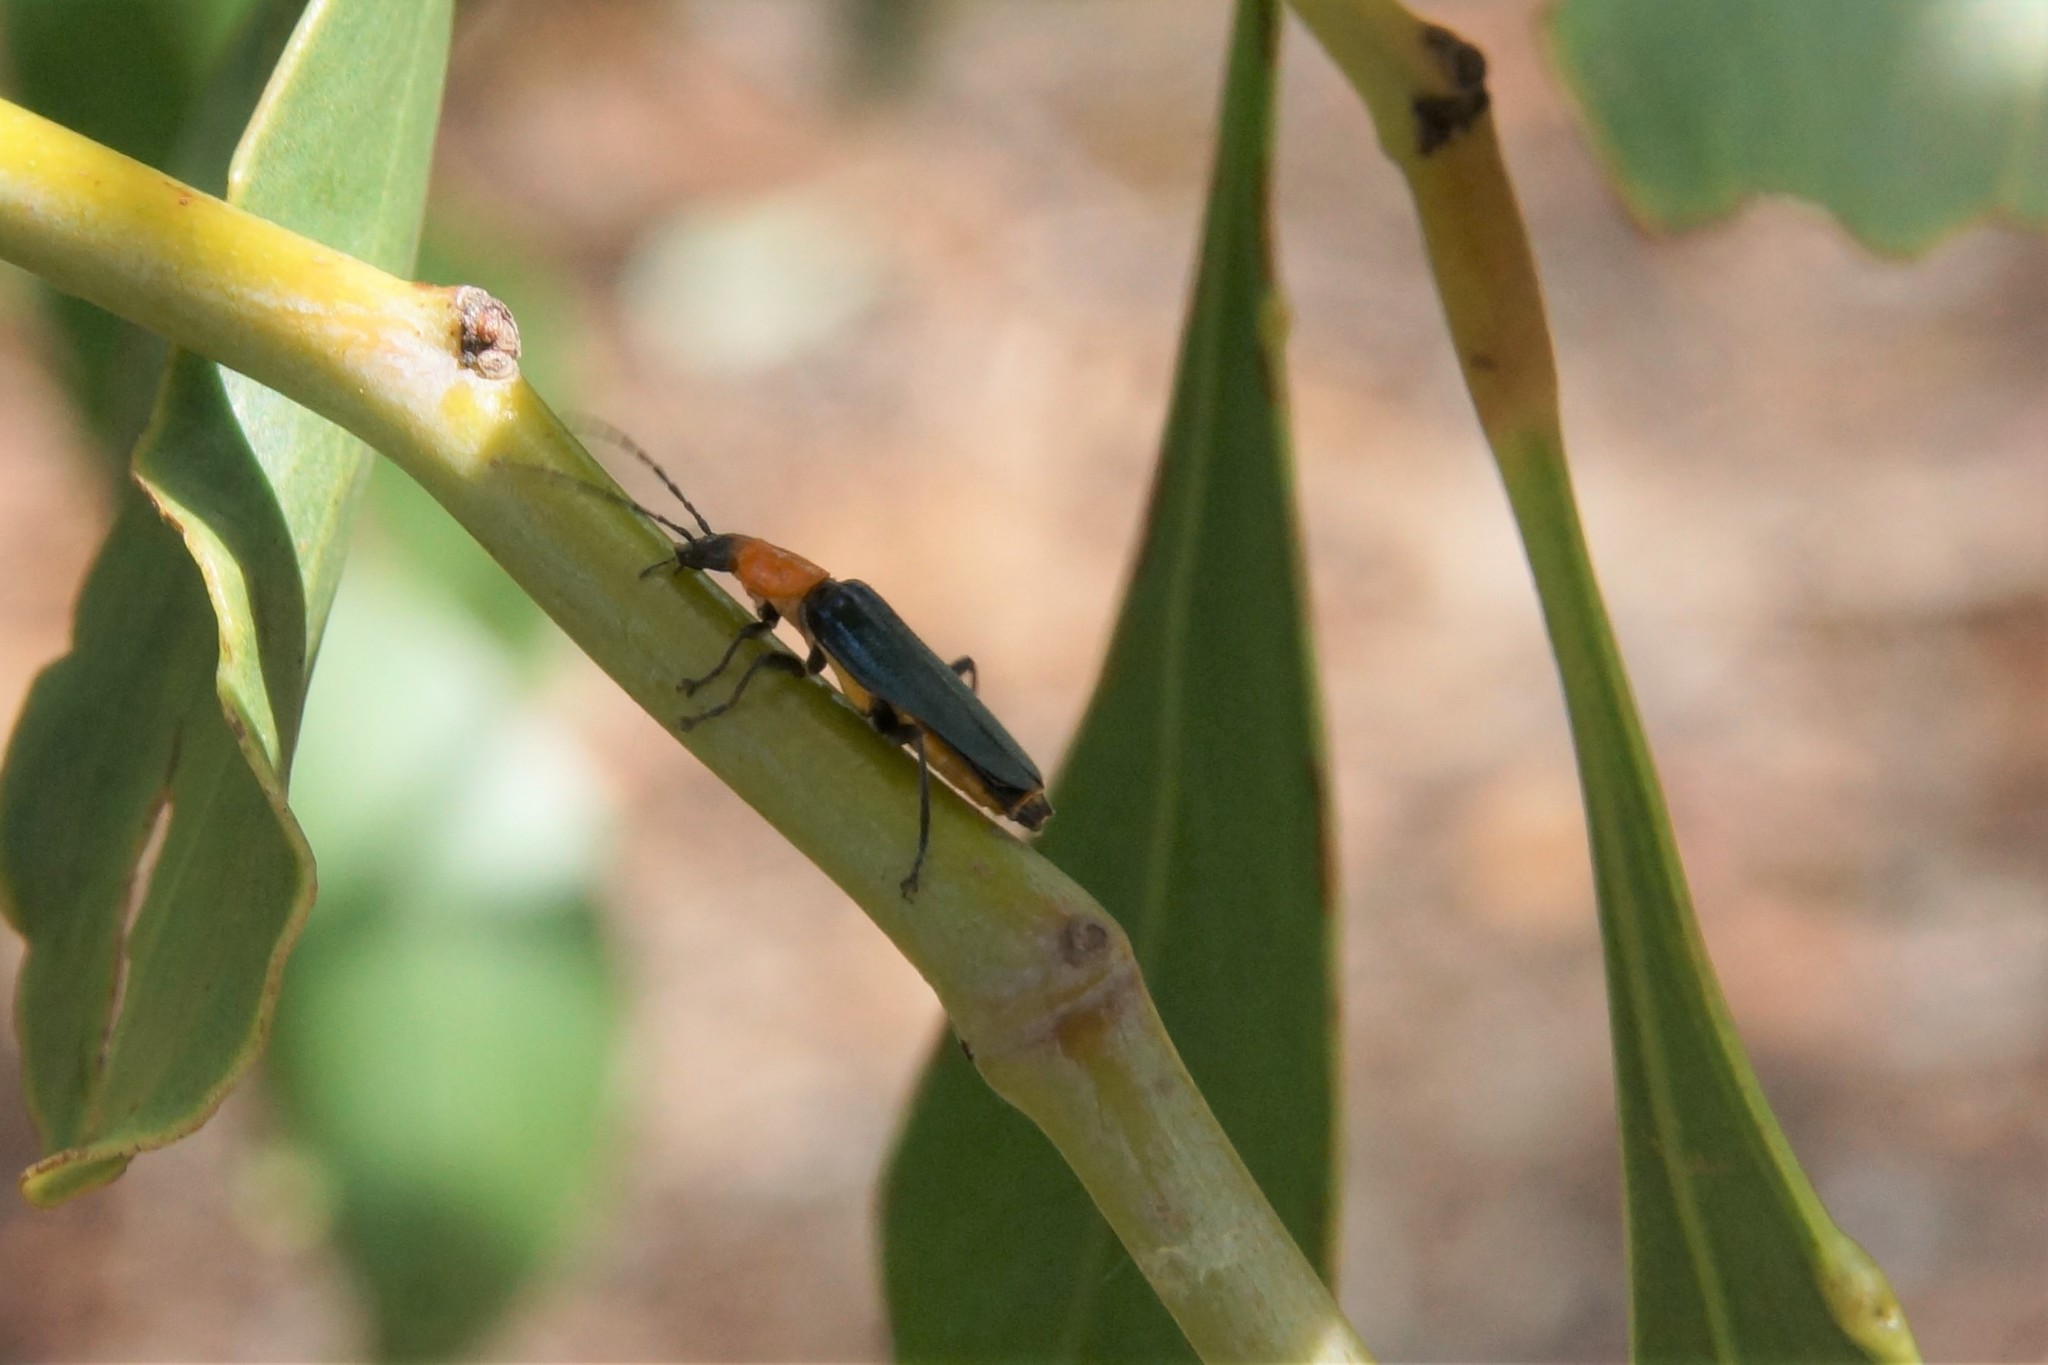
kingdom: Animalia
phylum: Arthropoda
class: Insecta
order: Coleoptera
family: Cantharidae
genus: Chauliognathus
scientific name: Chauliognathus
